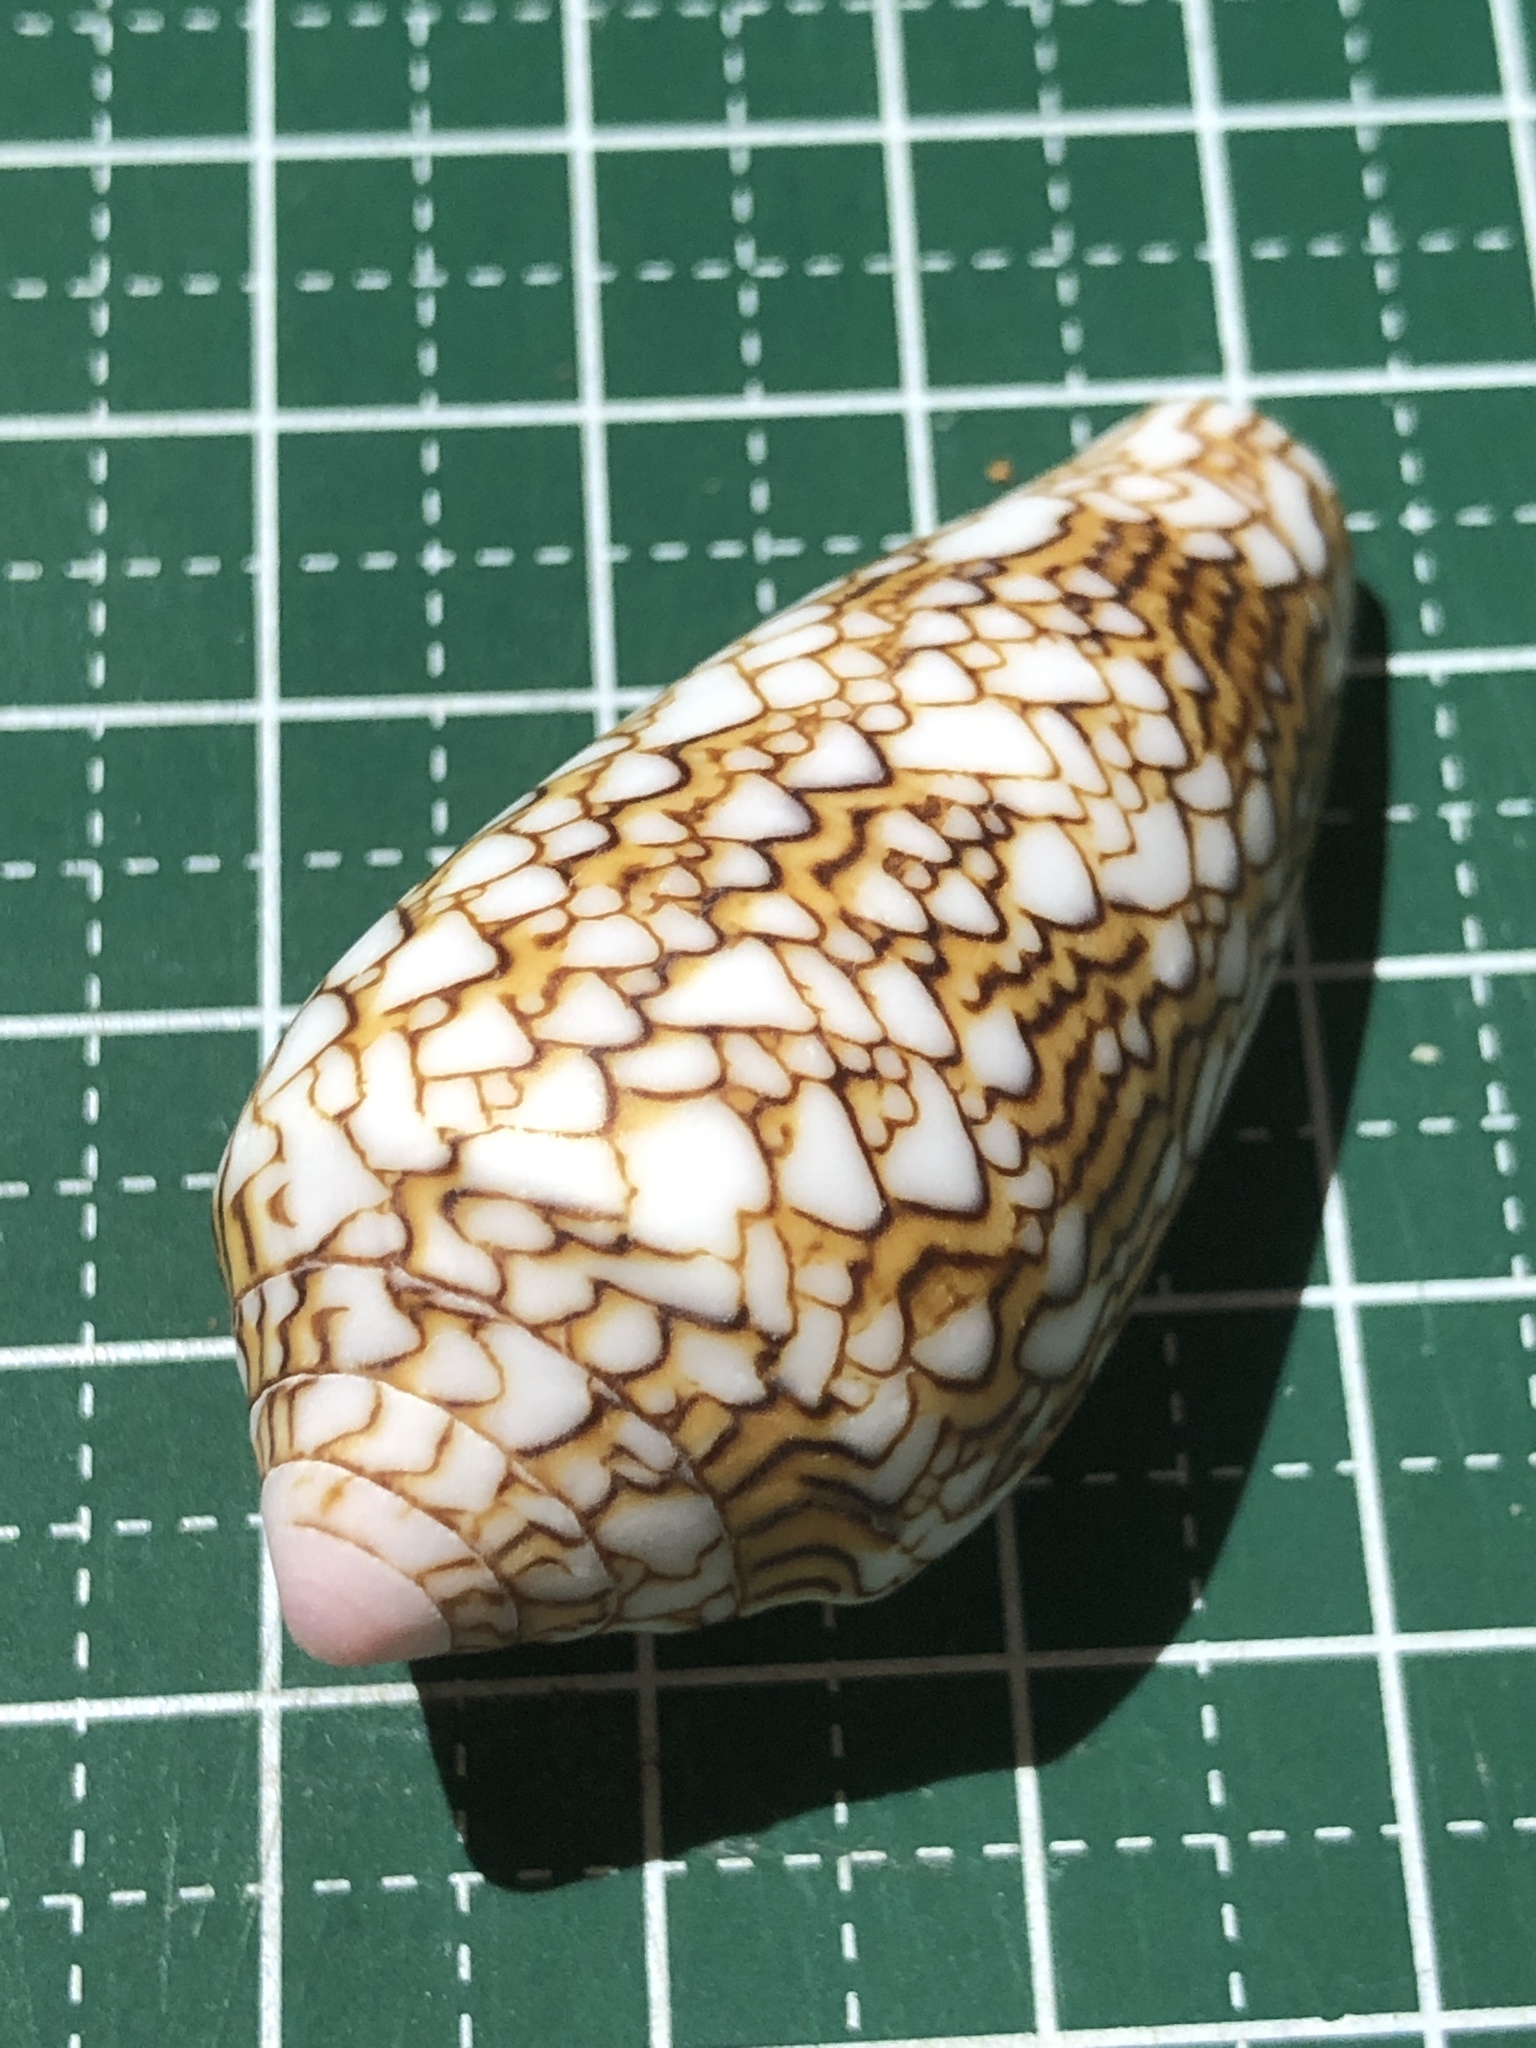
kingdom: Animalia
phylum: Mollusca
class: Gastropoda
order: Neogastropoda
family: Conidae
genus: Conus
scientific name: Conus textile
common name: Cloth-of-gold cone
